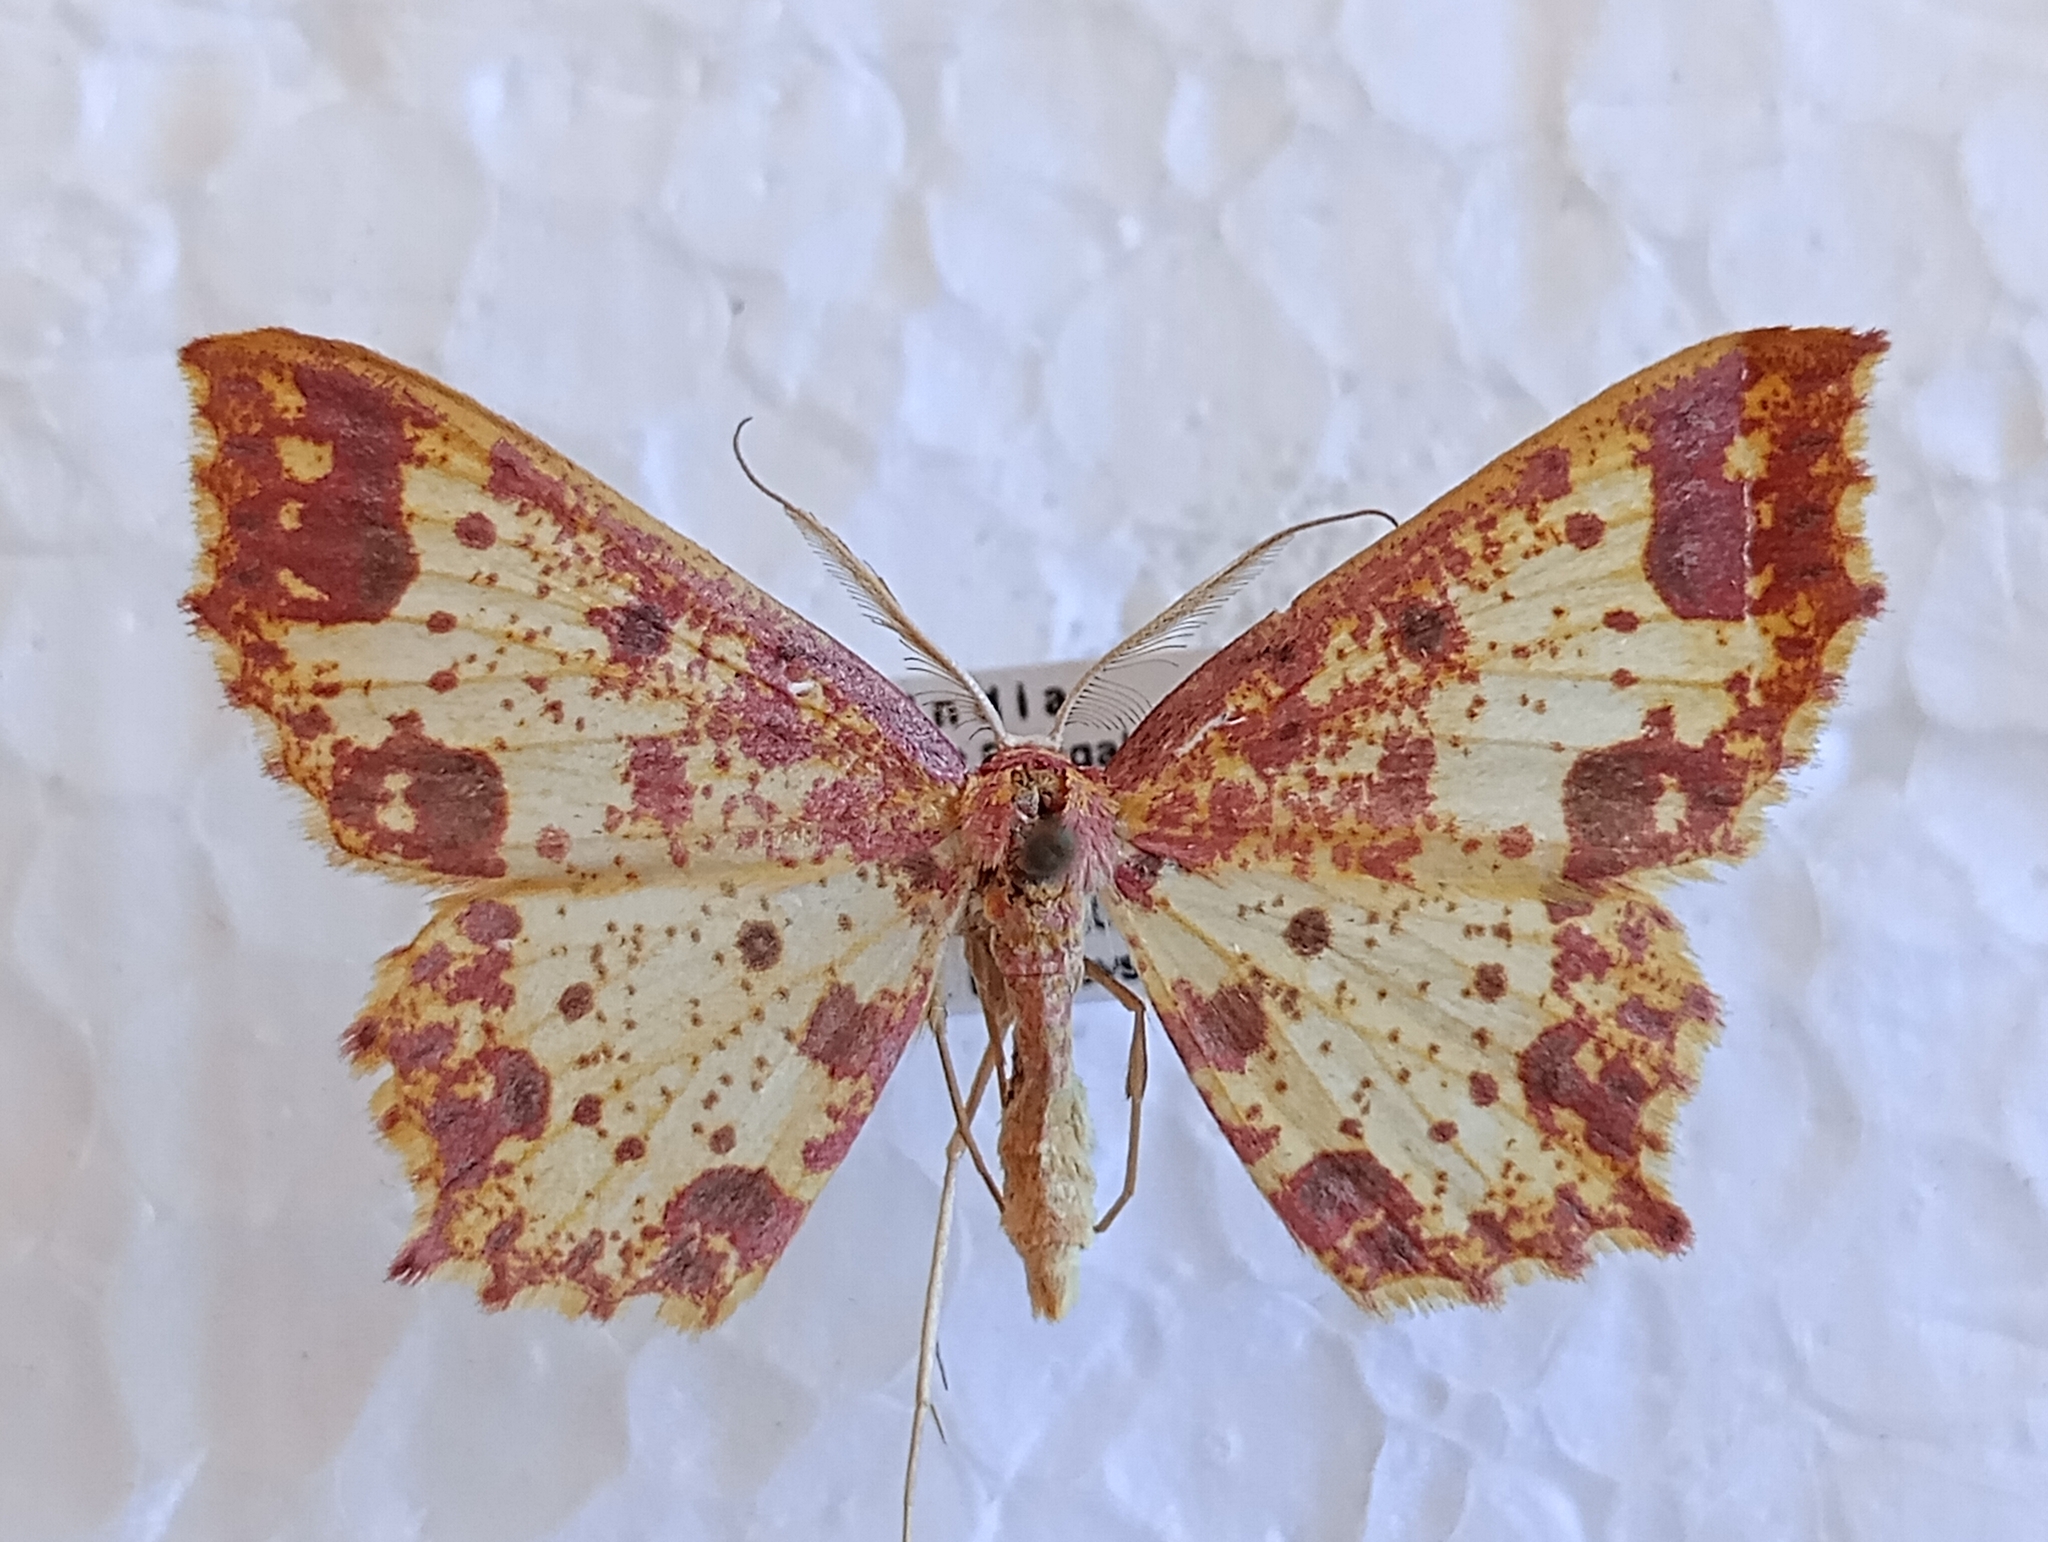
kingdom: Animalia
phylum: Arthropoda
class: Insecta
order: Lepidoptera
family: Geometridae
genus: Synegiodes
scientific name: Synegiodes sanguinaria
